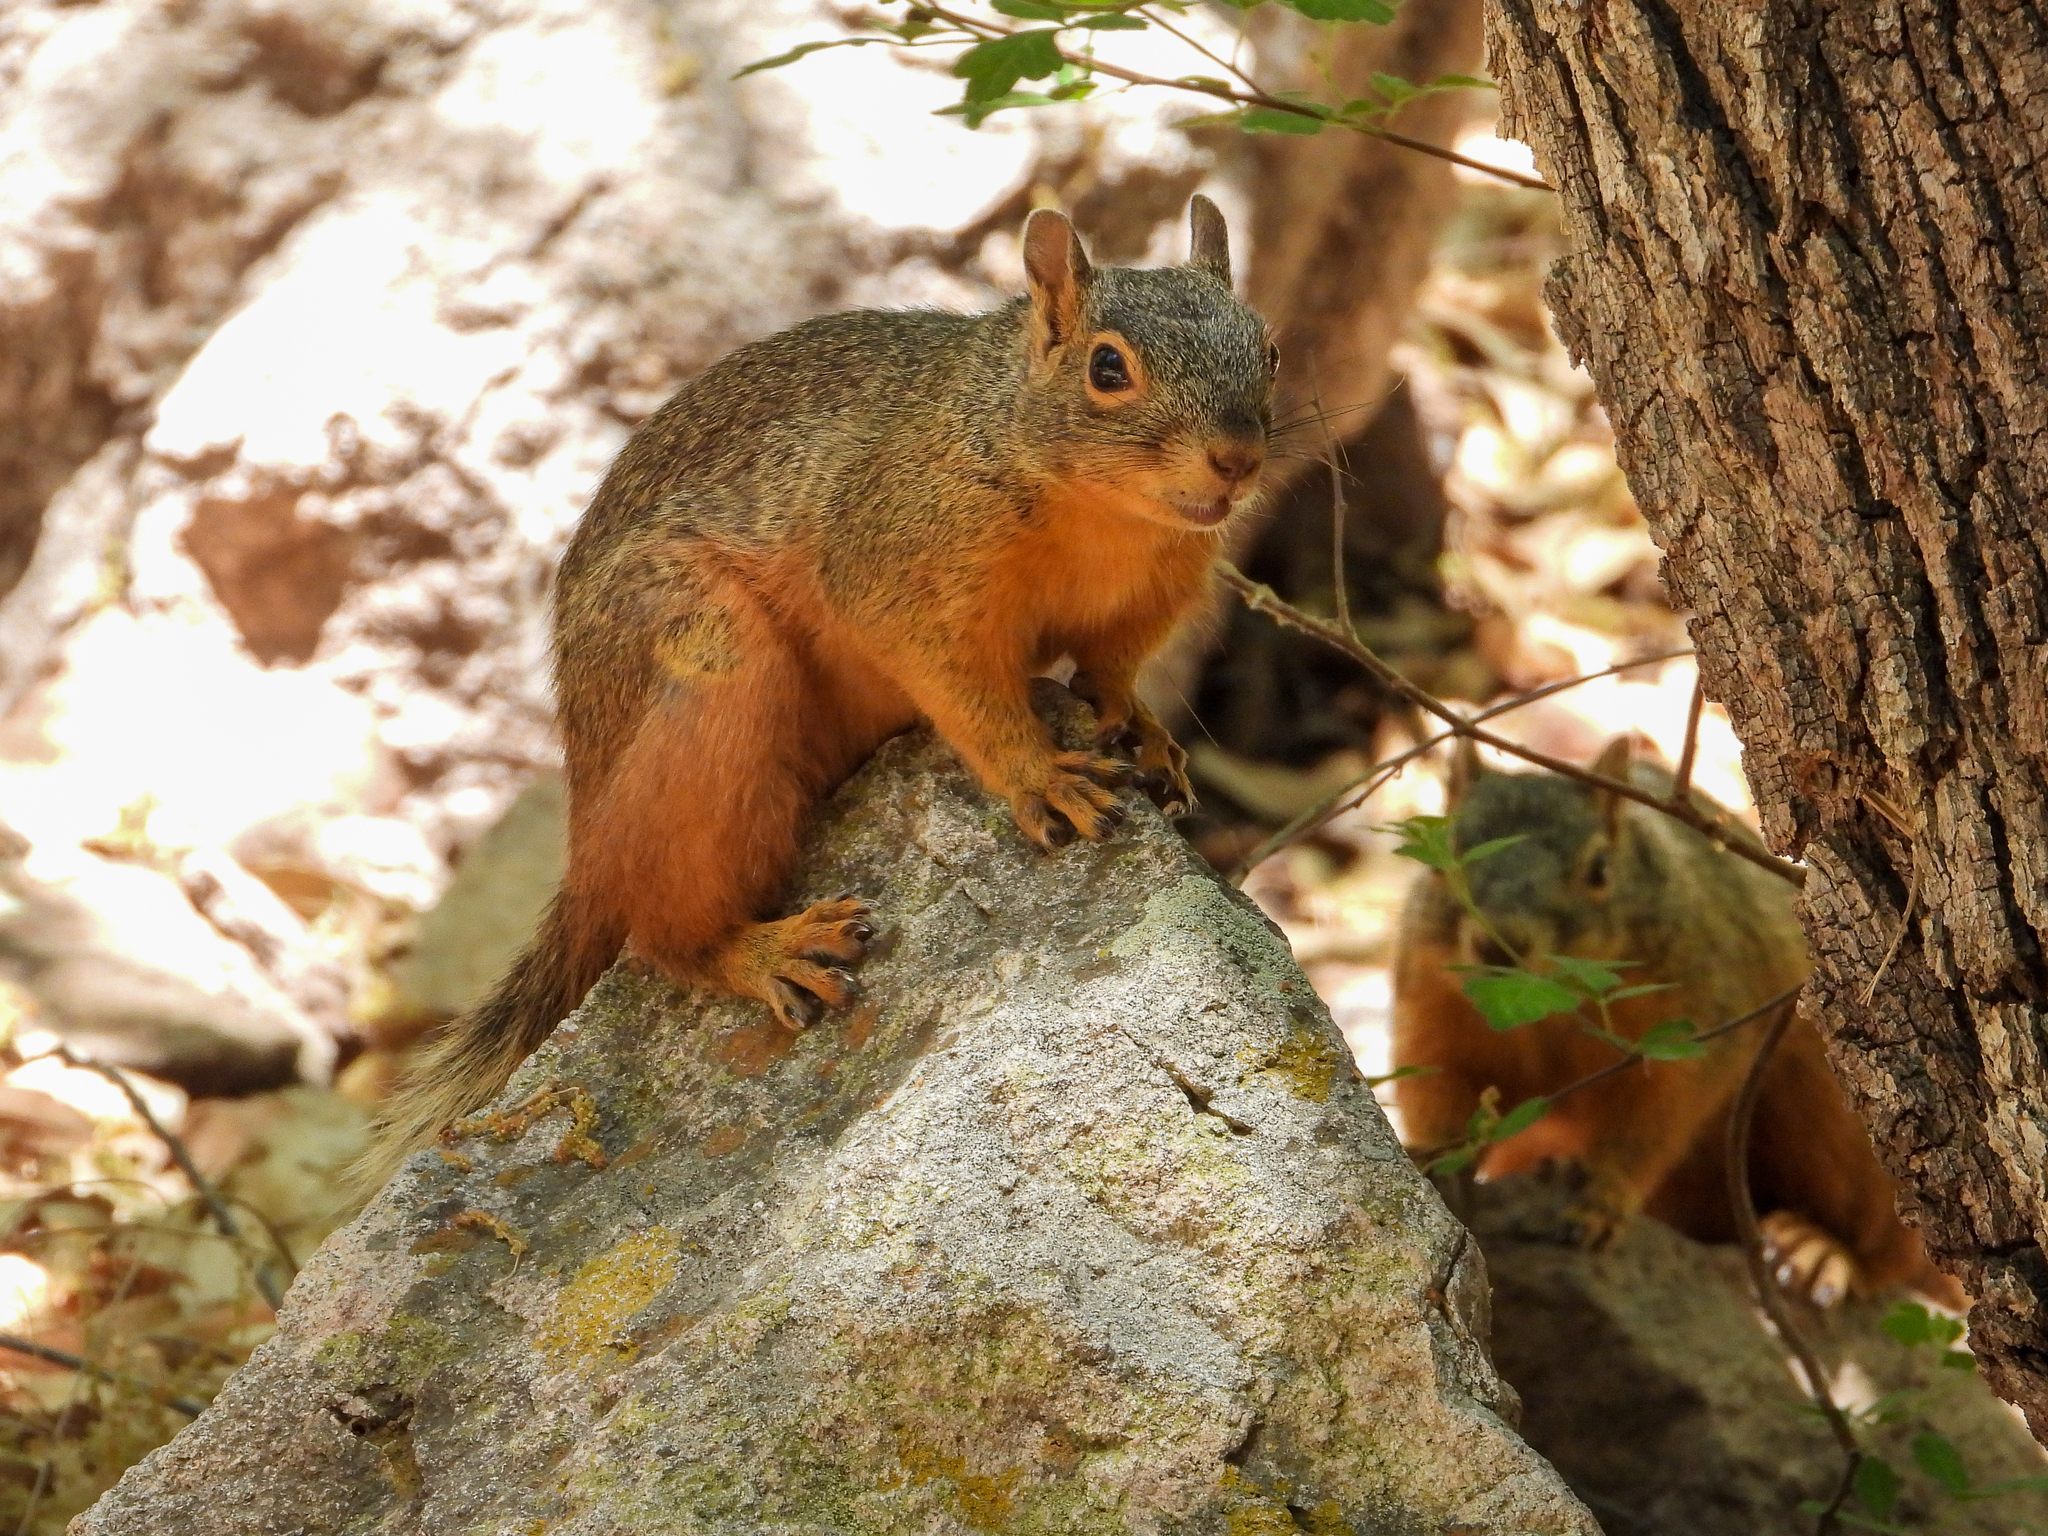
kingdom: Animalia
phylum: Chordata
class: Mammalia
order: Rodentia
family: Sciuridae
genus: Sciurus
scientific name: Sciurus nayaritensis
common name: Mexican fox squirrel
